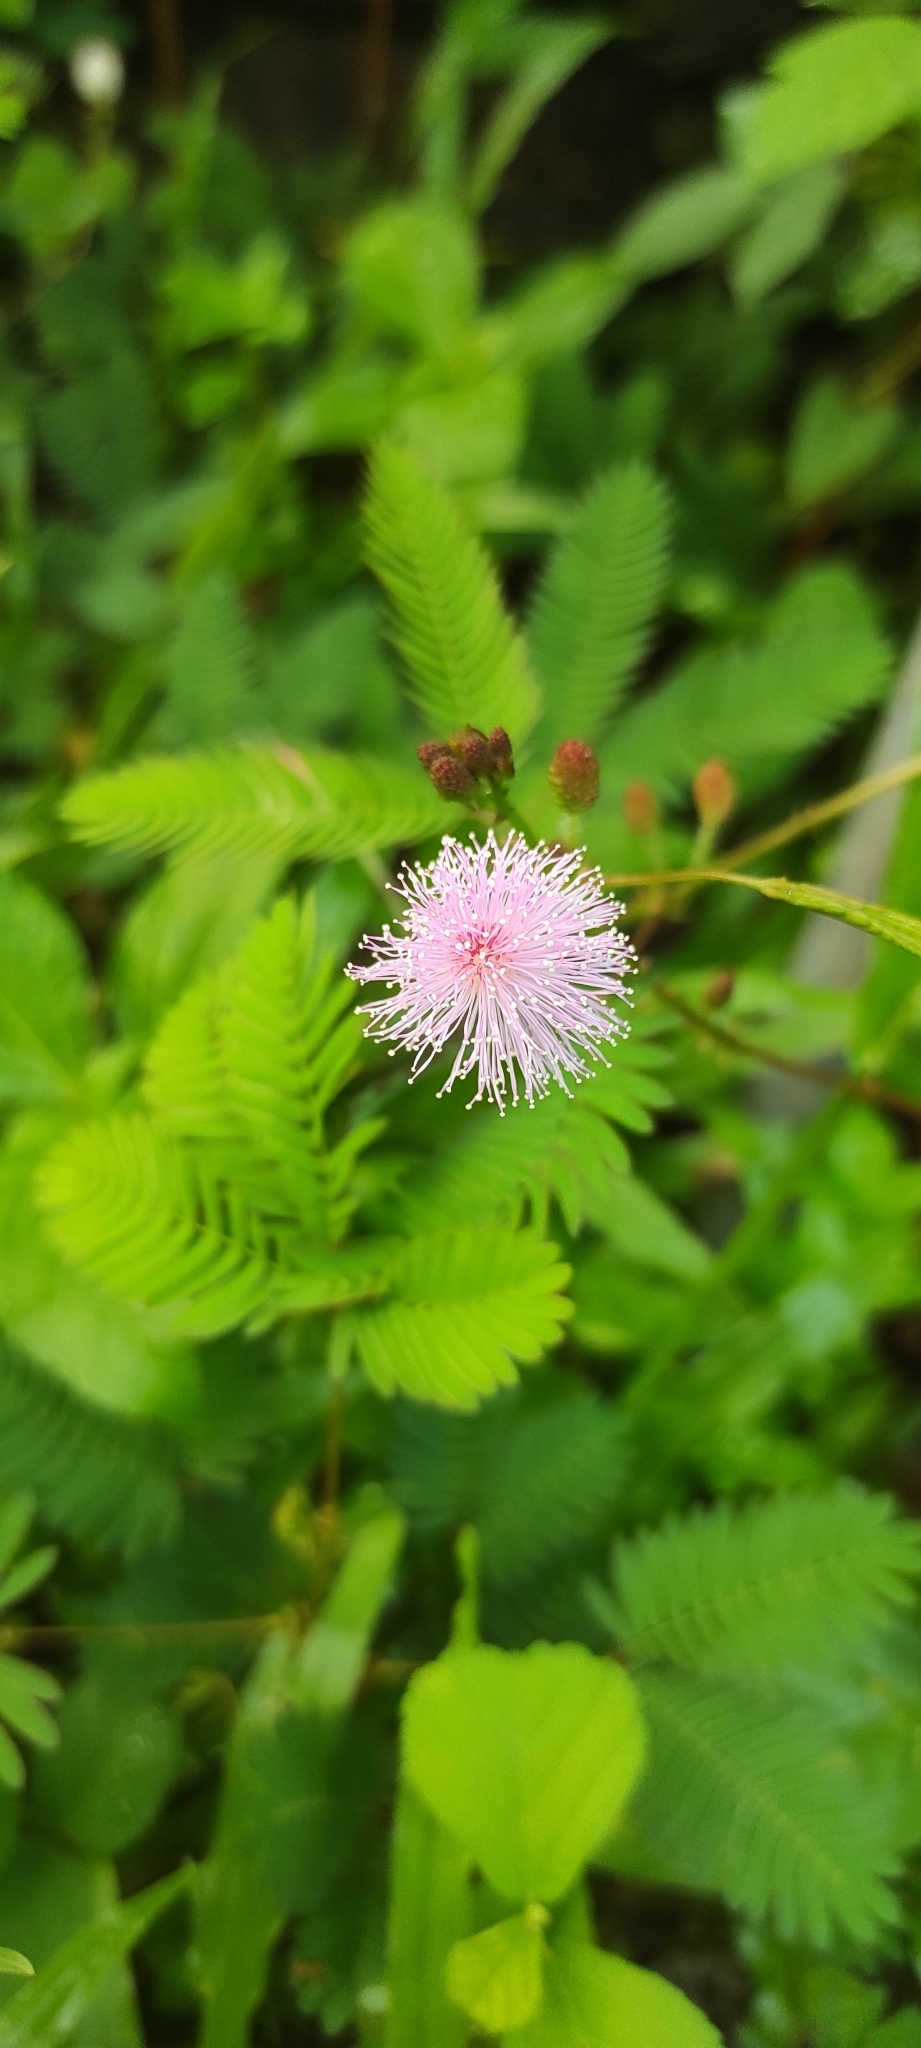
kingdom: Plantae
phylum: Tracheophyta
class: Magnoliopsida
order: Fabales
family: Fabaceae
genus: Mimosa
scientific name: Mimosa pudica
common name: Sensitive plant
